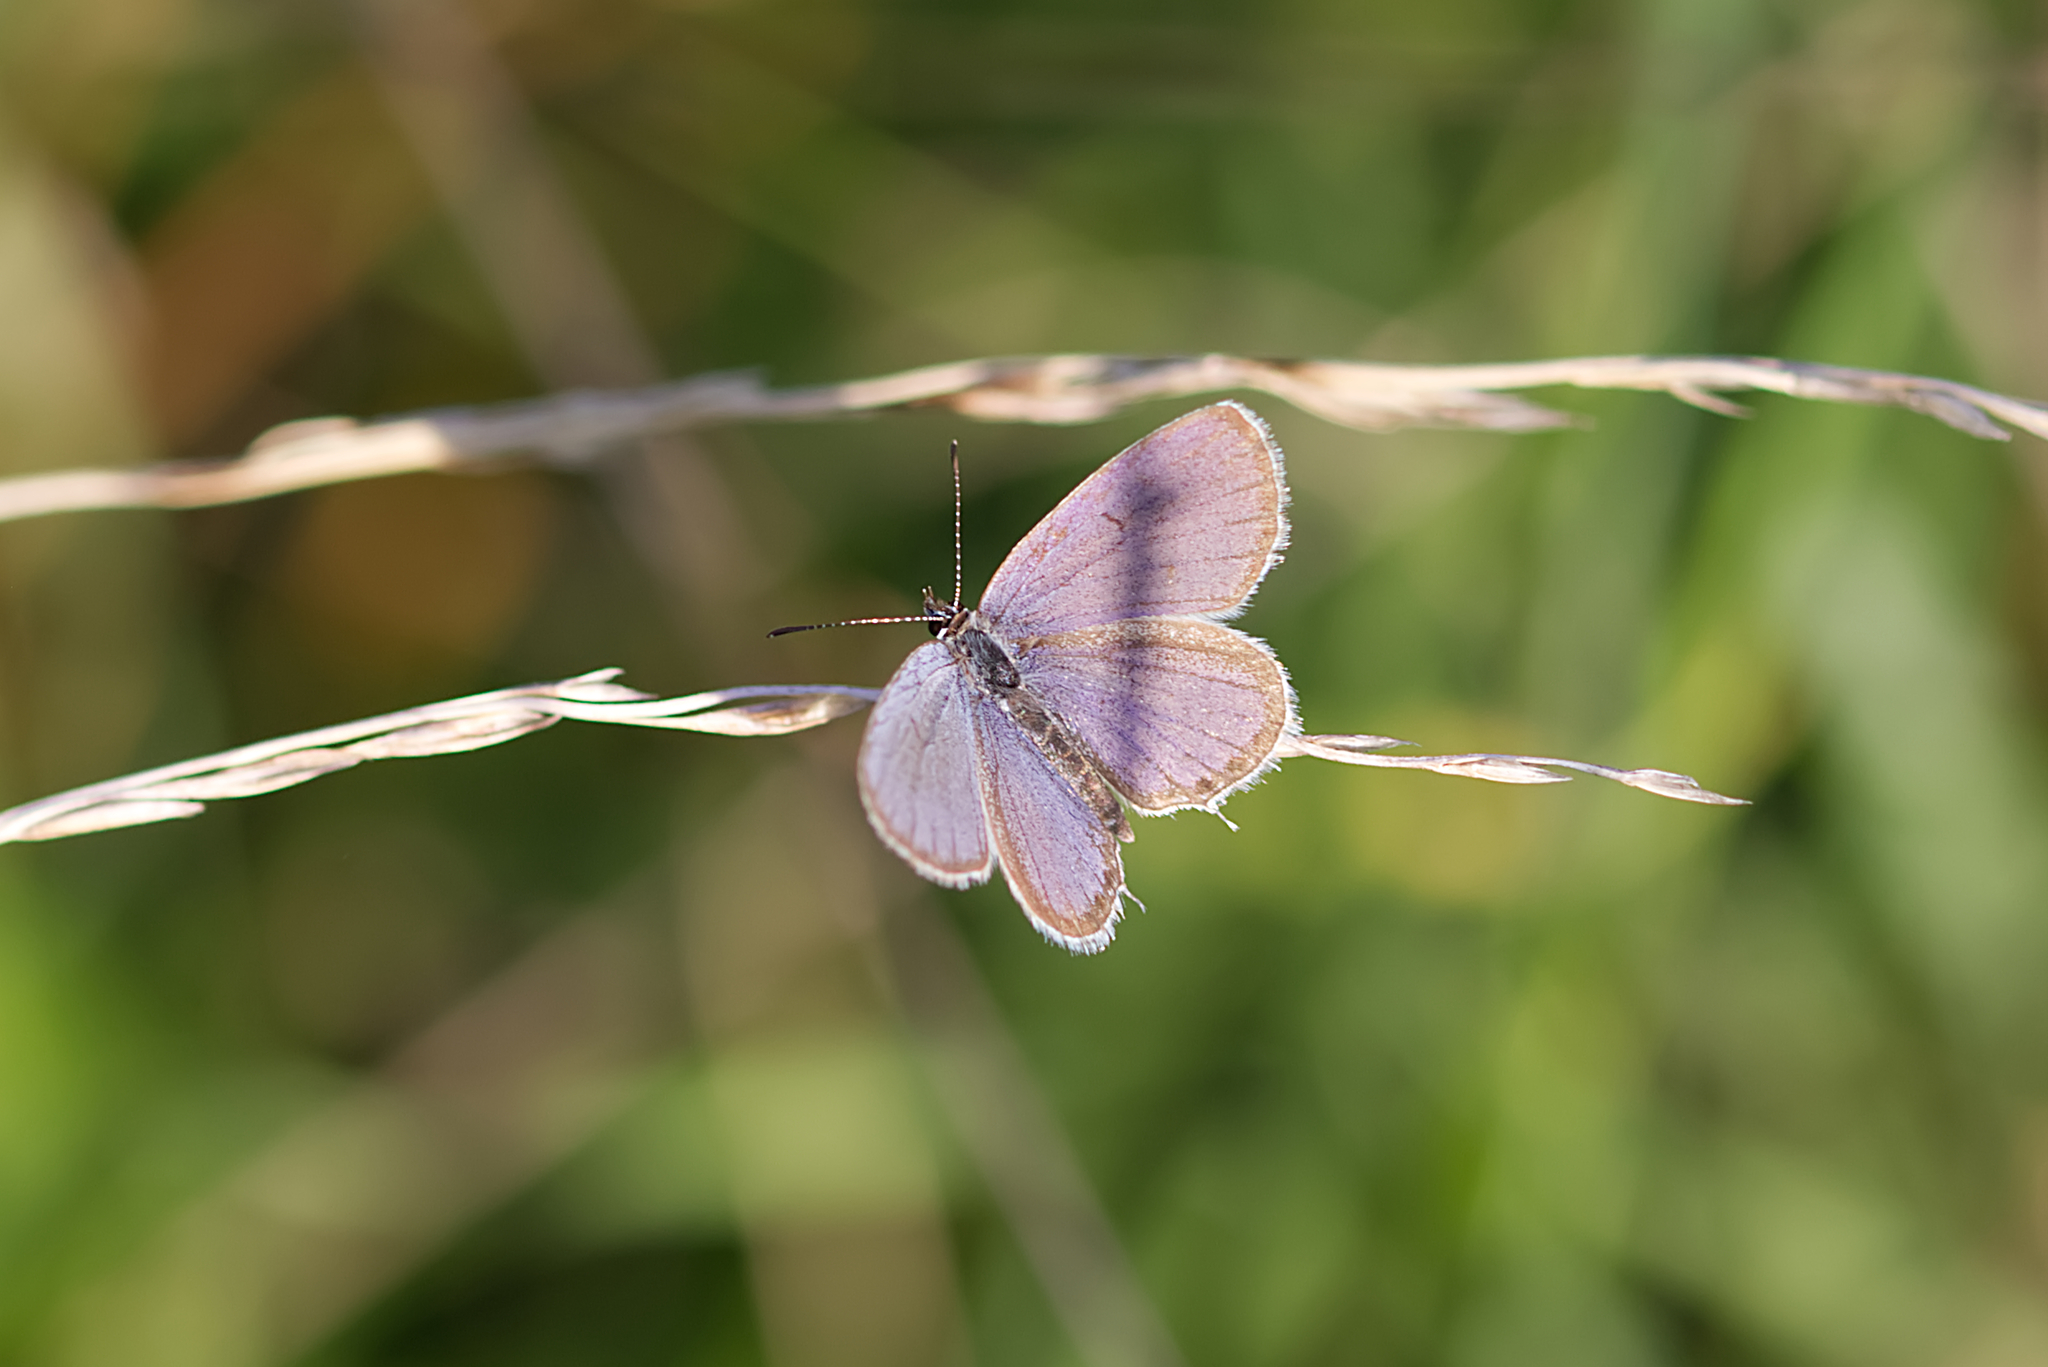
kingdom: Animalia
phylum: Arthropoda
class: Insecta
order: Lepidoptera
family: Lycaenidae
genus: Elkalyce
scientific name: Elkalyce argiades
